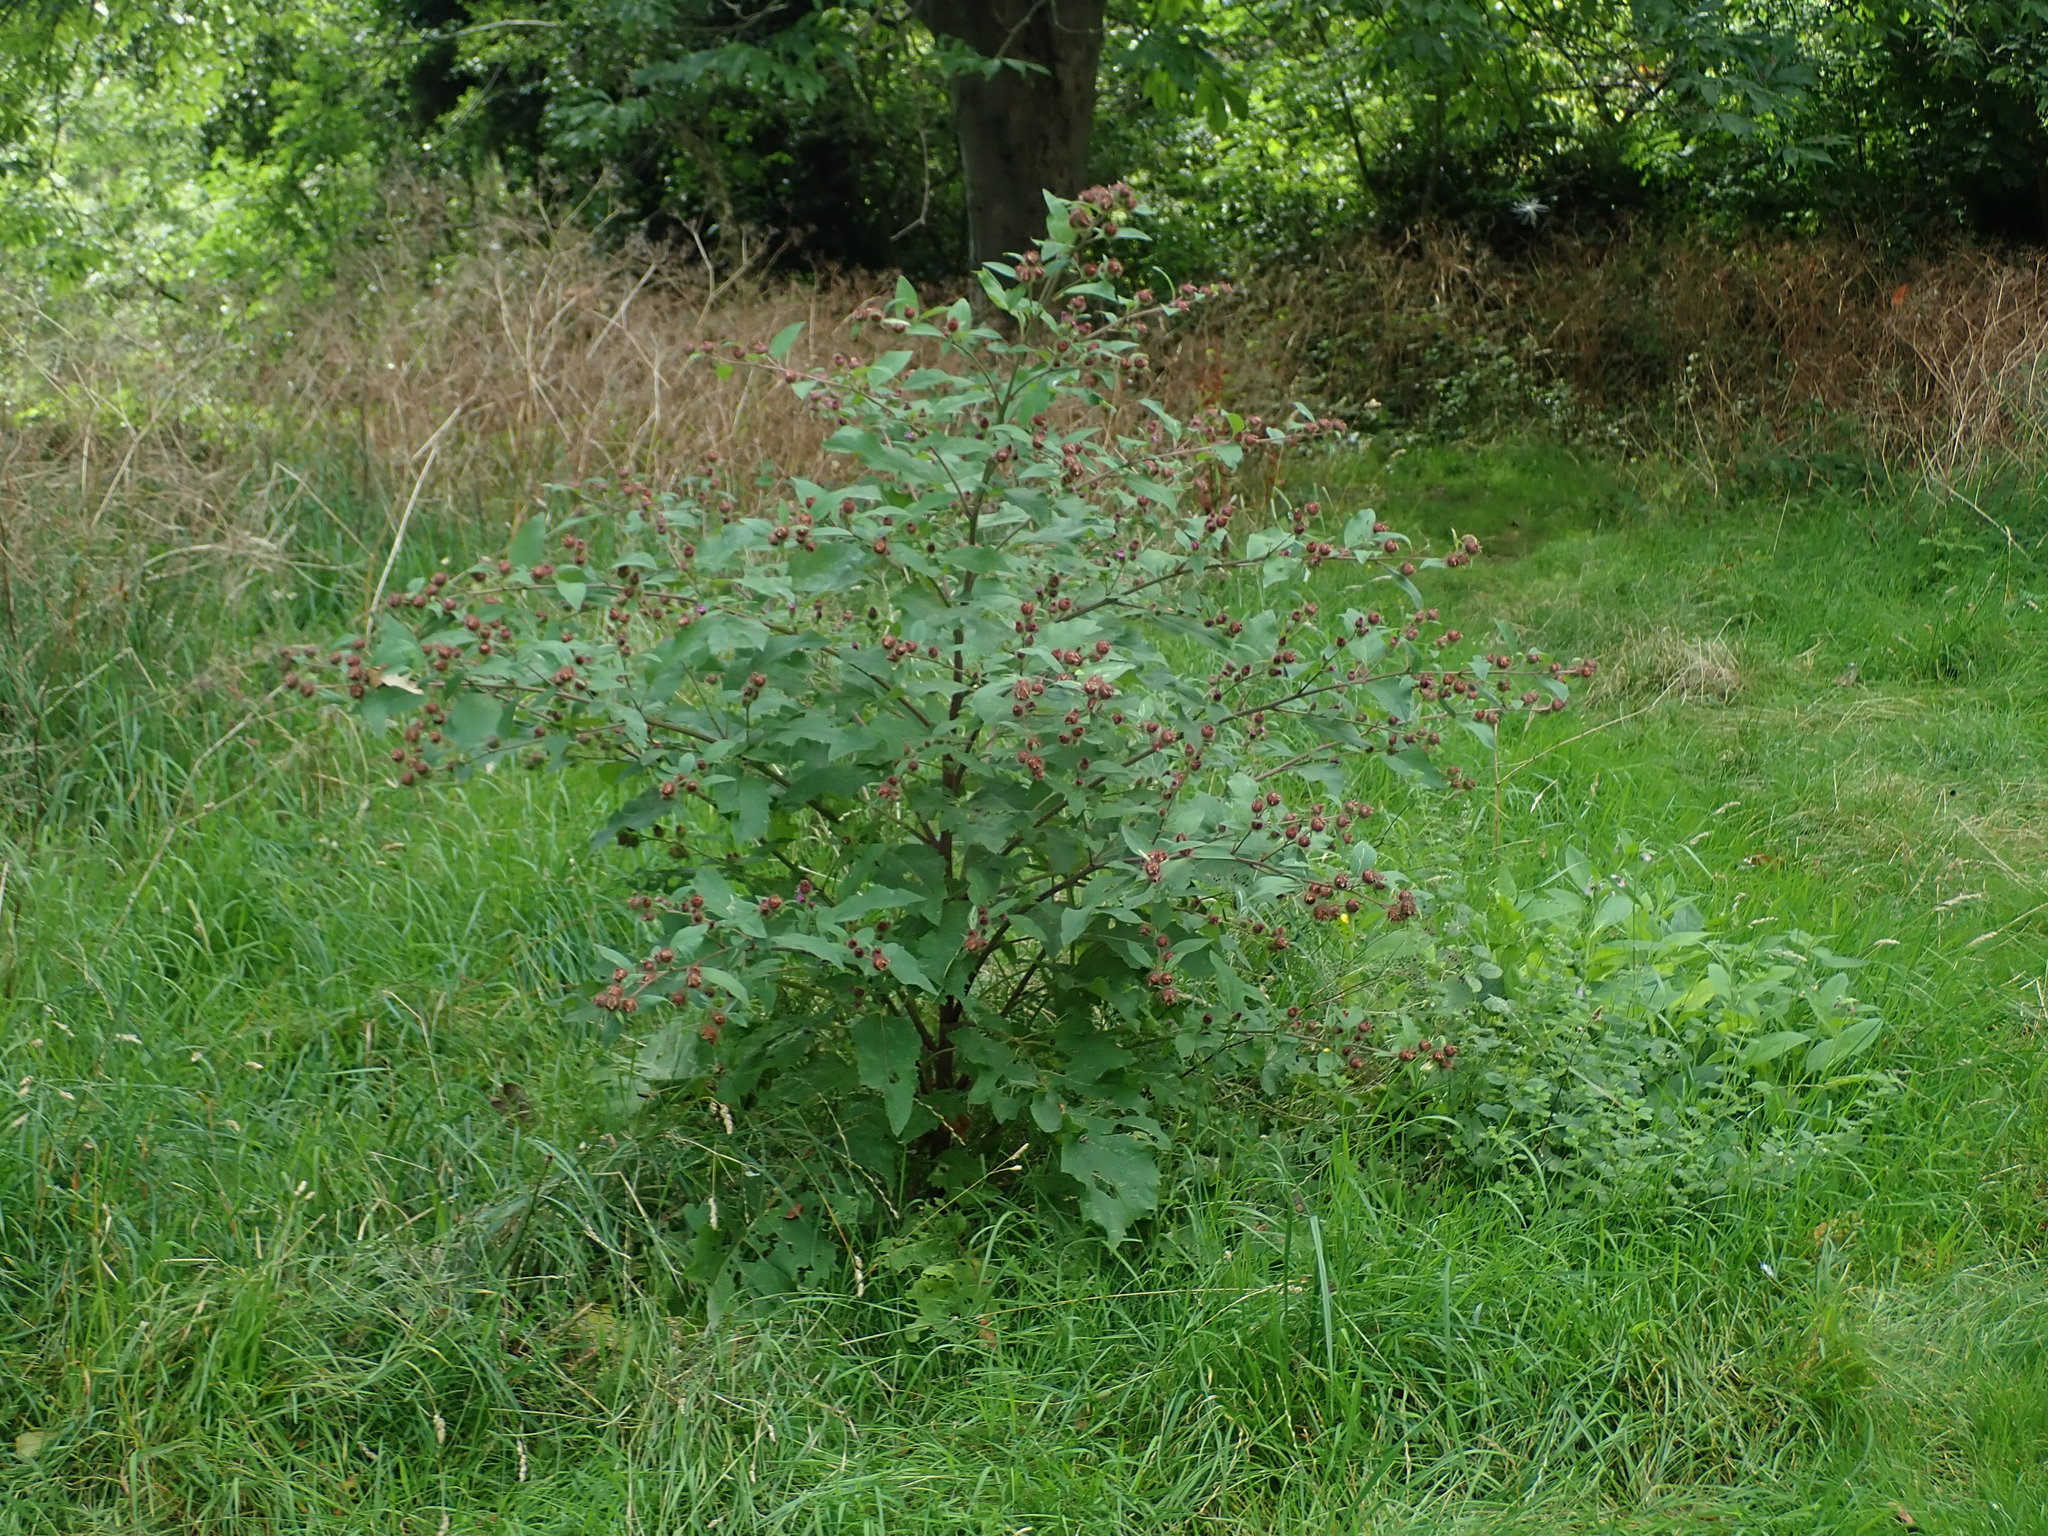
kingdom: Plantae
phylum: Tracheophyta
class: Magnoliopsida
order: Asterales
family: Asteraceae
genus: Arctium
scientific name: Arctium minus
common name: Lesser burdock
